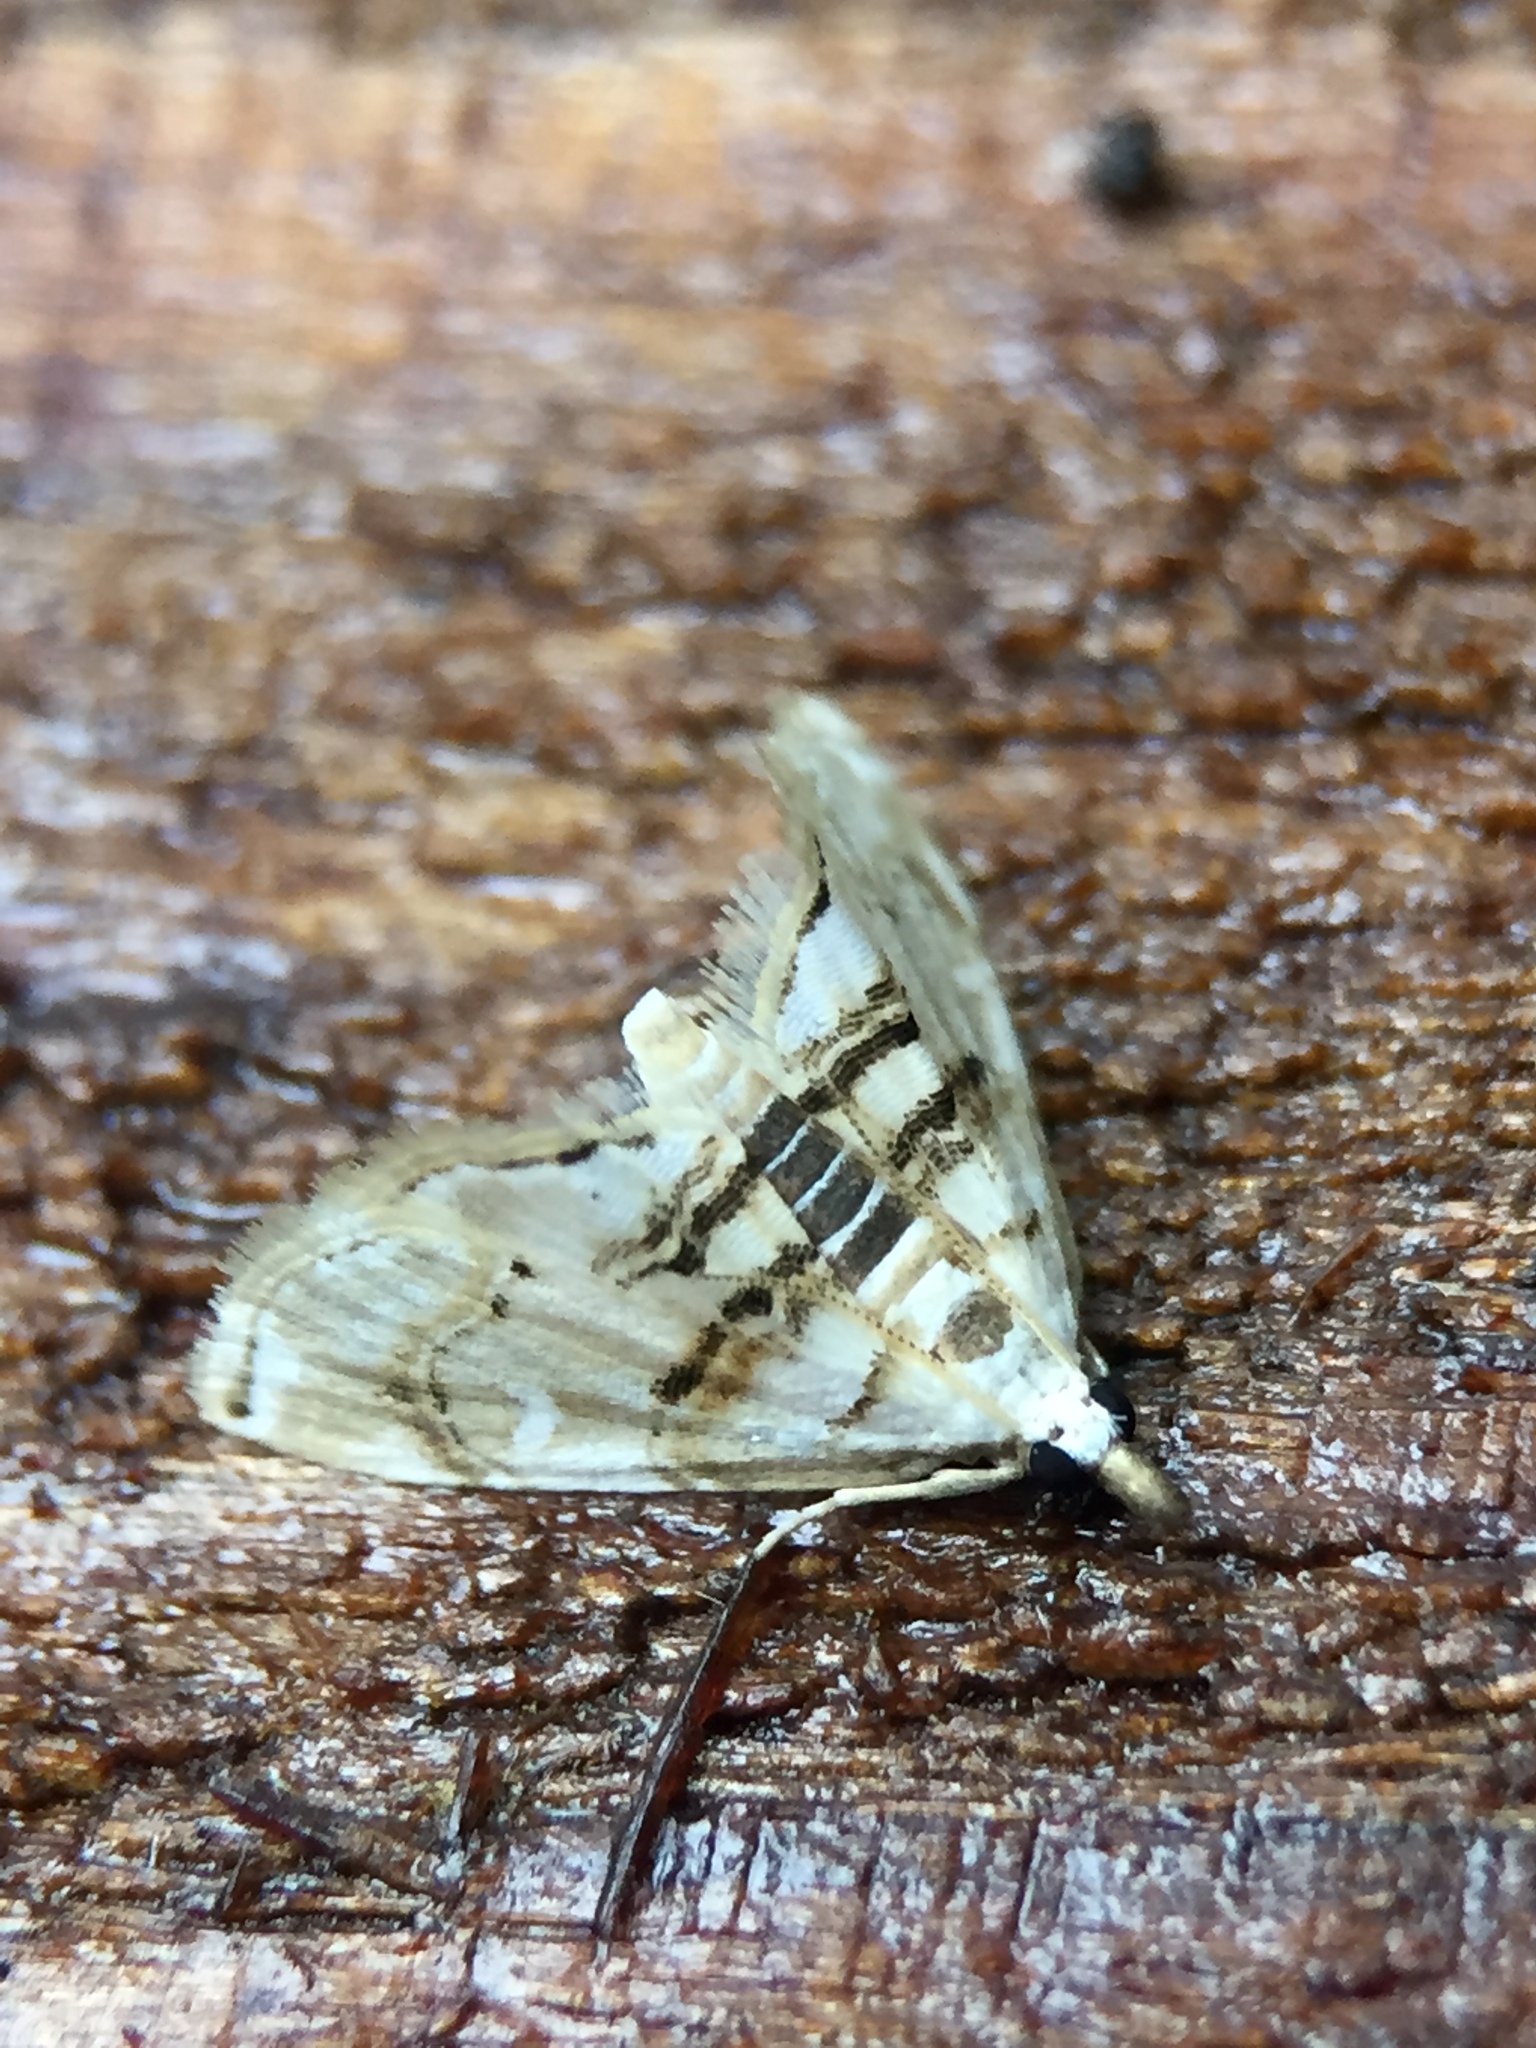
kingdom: Animalia
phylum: Arthropoda
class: Insecta
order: Lepidoptera
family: Crambidae
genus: Trichophysetis
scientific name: Trichophysetis
